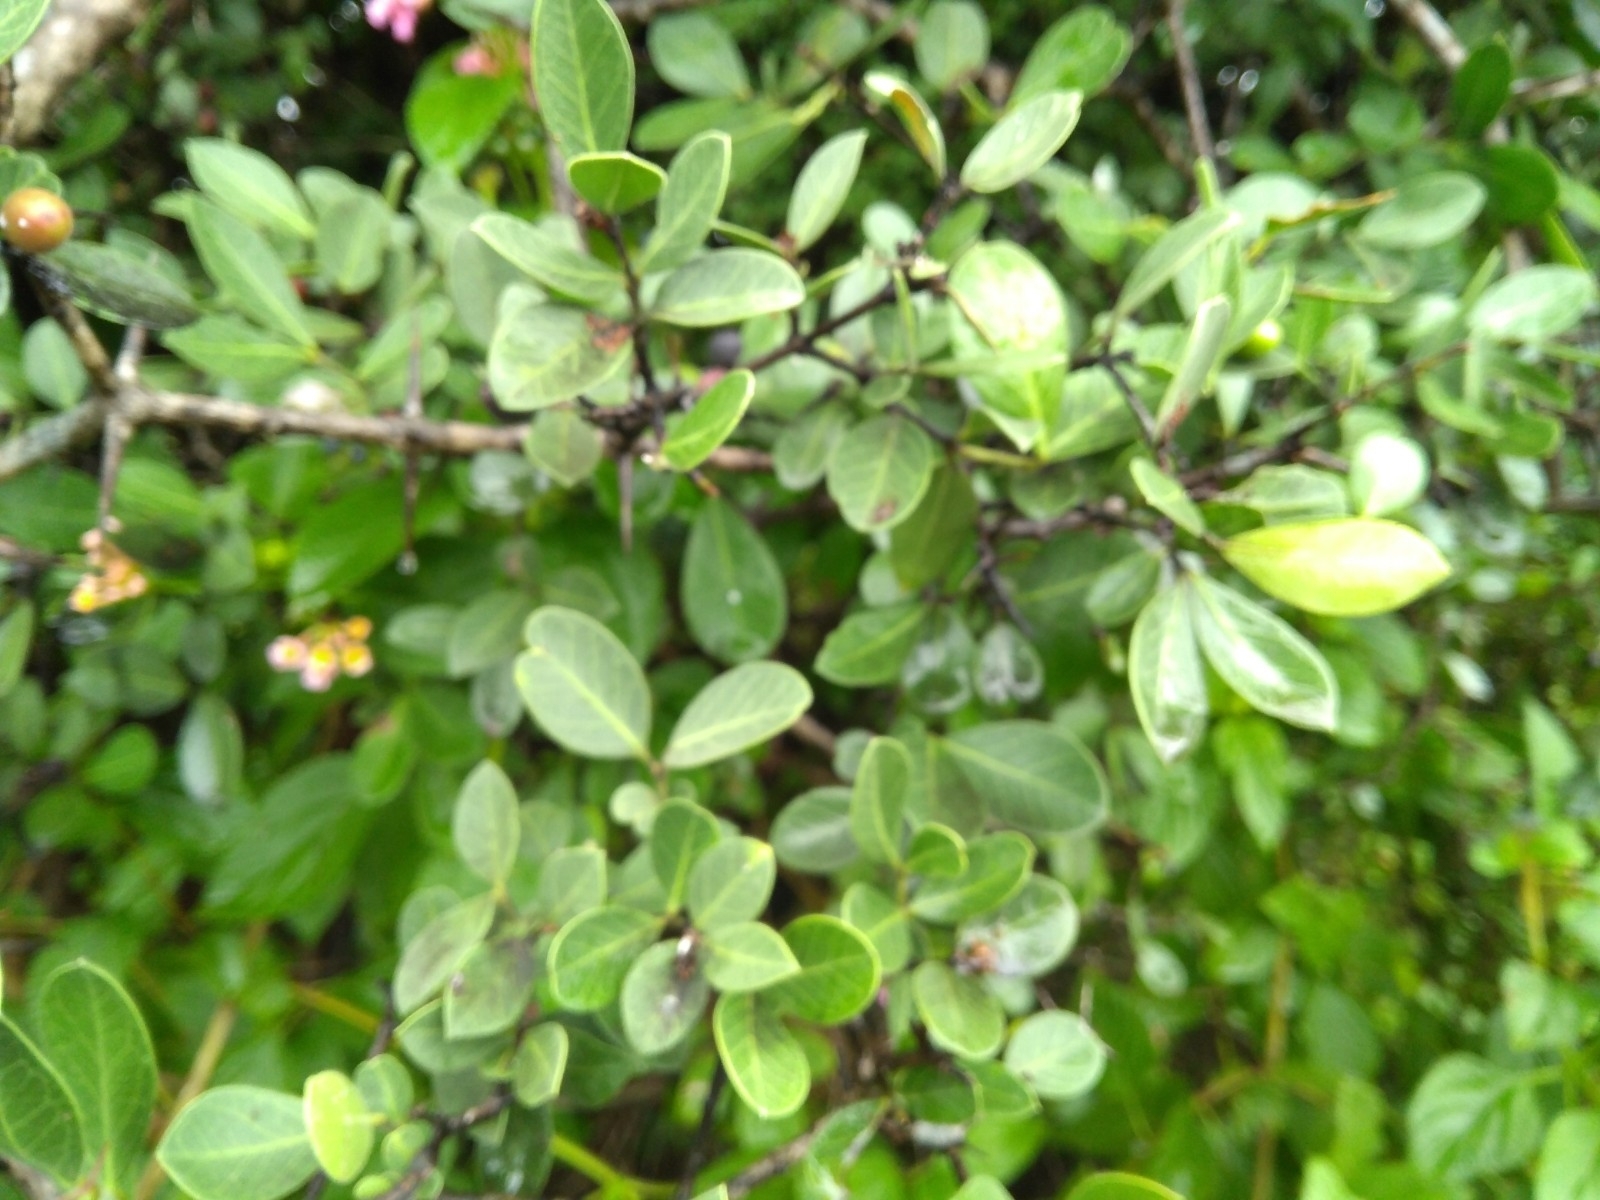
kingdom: Plantae
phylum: Tracheophyta
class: Magnoliopsida
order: Gentianales
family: Apocynaceae
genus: Carissa
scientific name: Carissa spinarum
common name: Egyptian carissa
